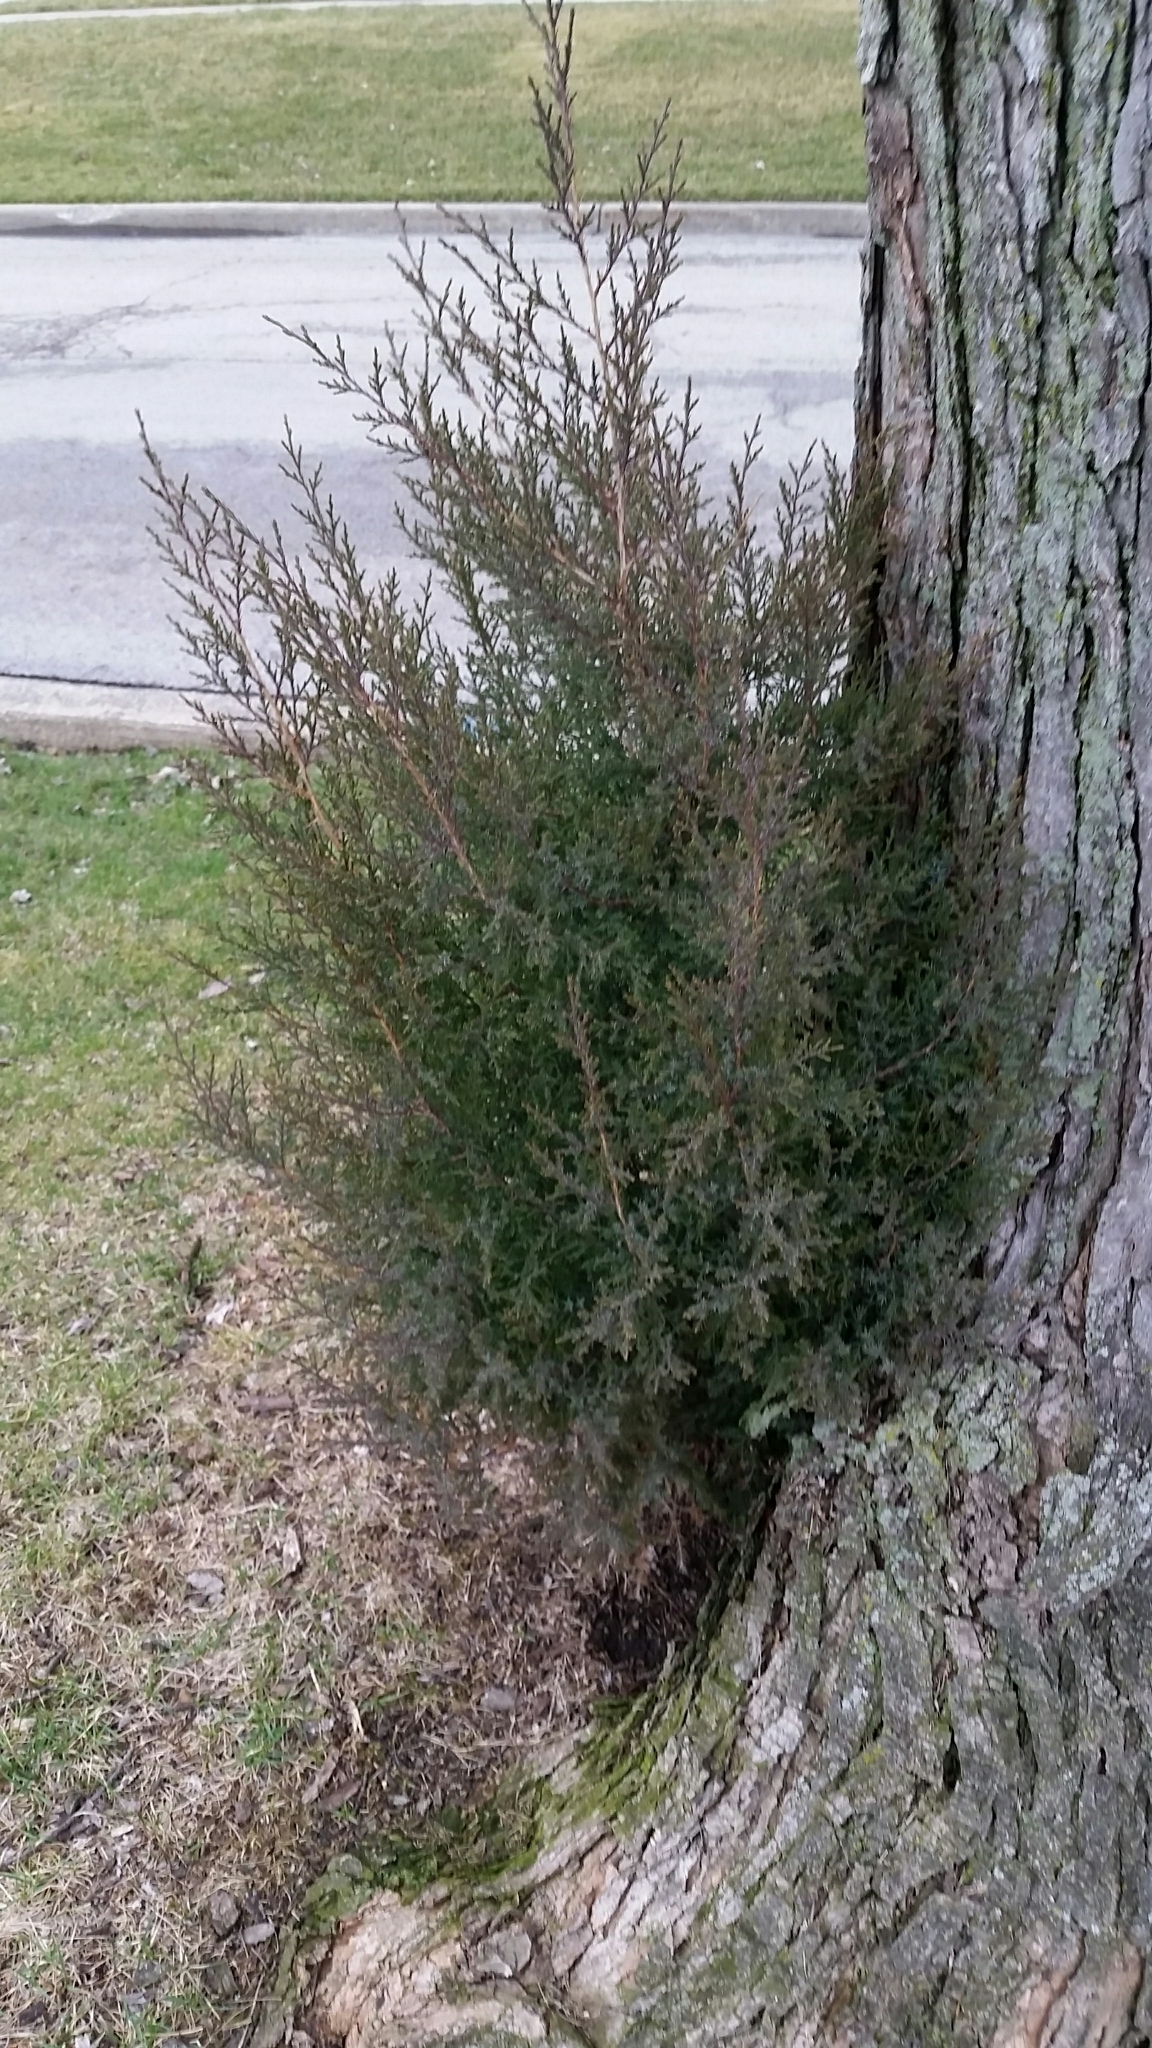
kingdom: Plantae
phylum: Tracheophyta
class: Pinopsida
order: Pinales
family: Cupressaceae
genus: Juniperus
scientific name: Juniperus virginiana
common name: Red juniper
